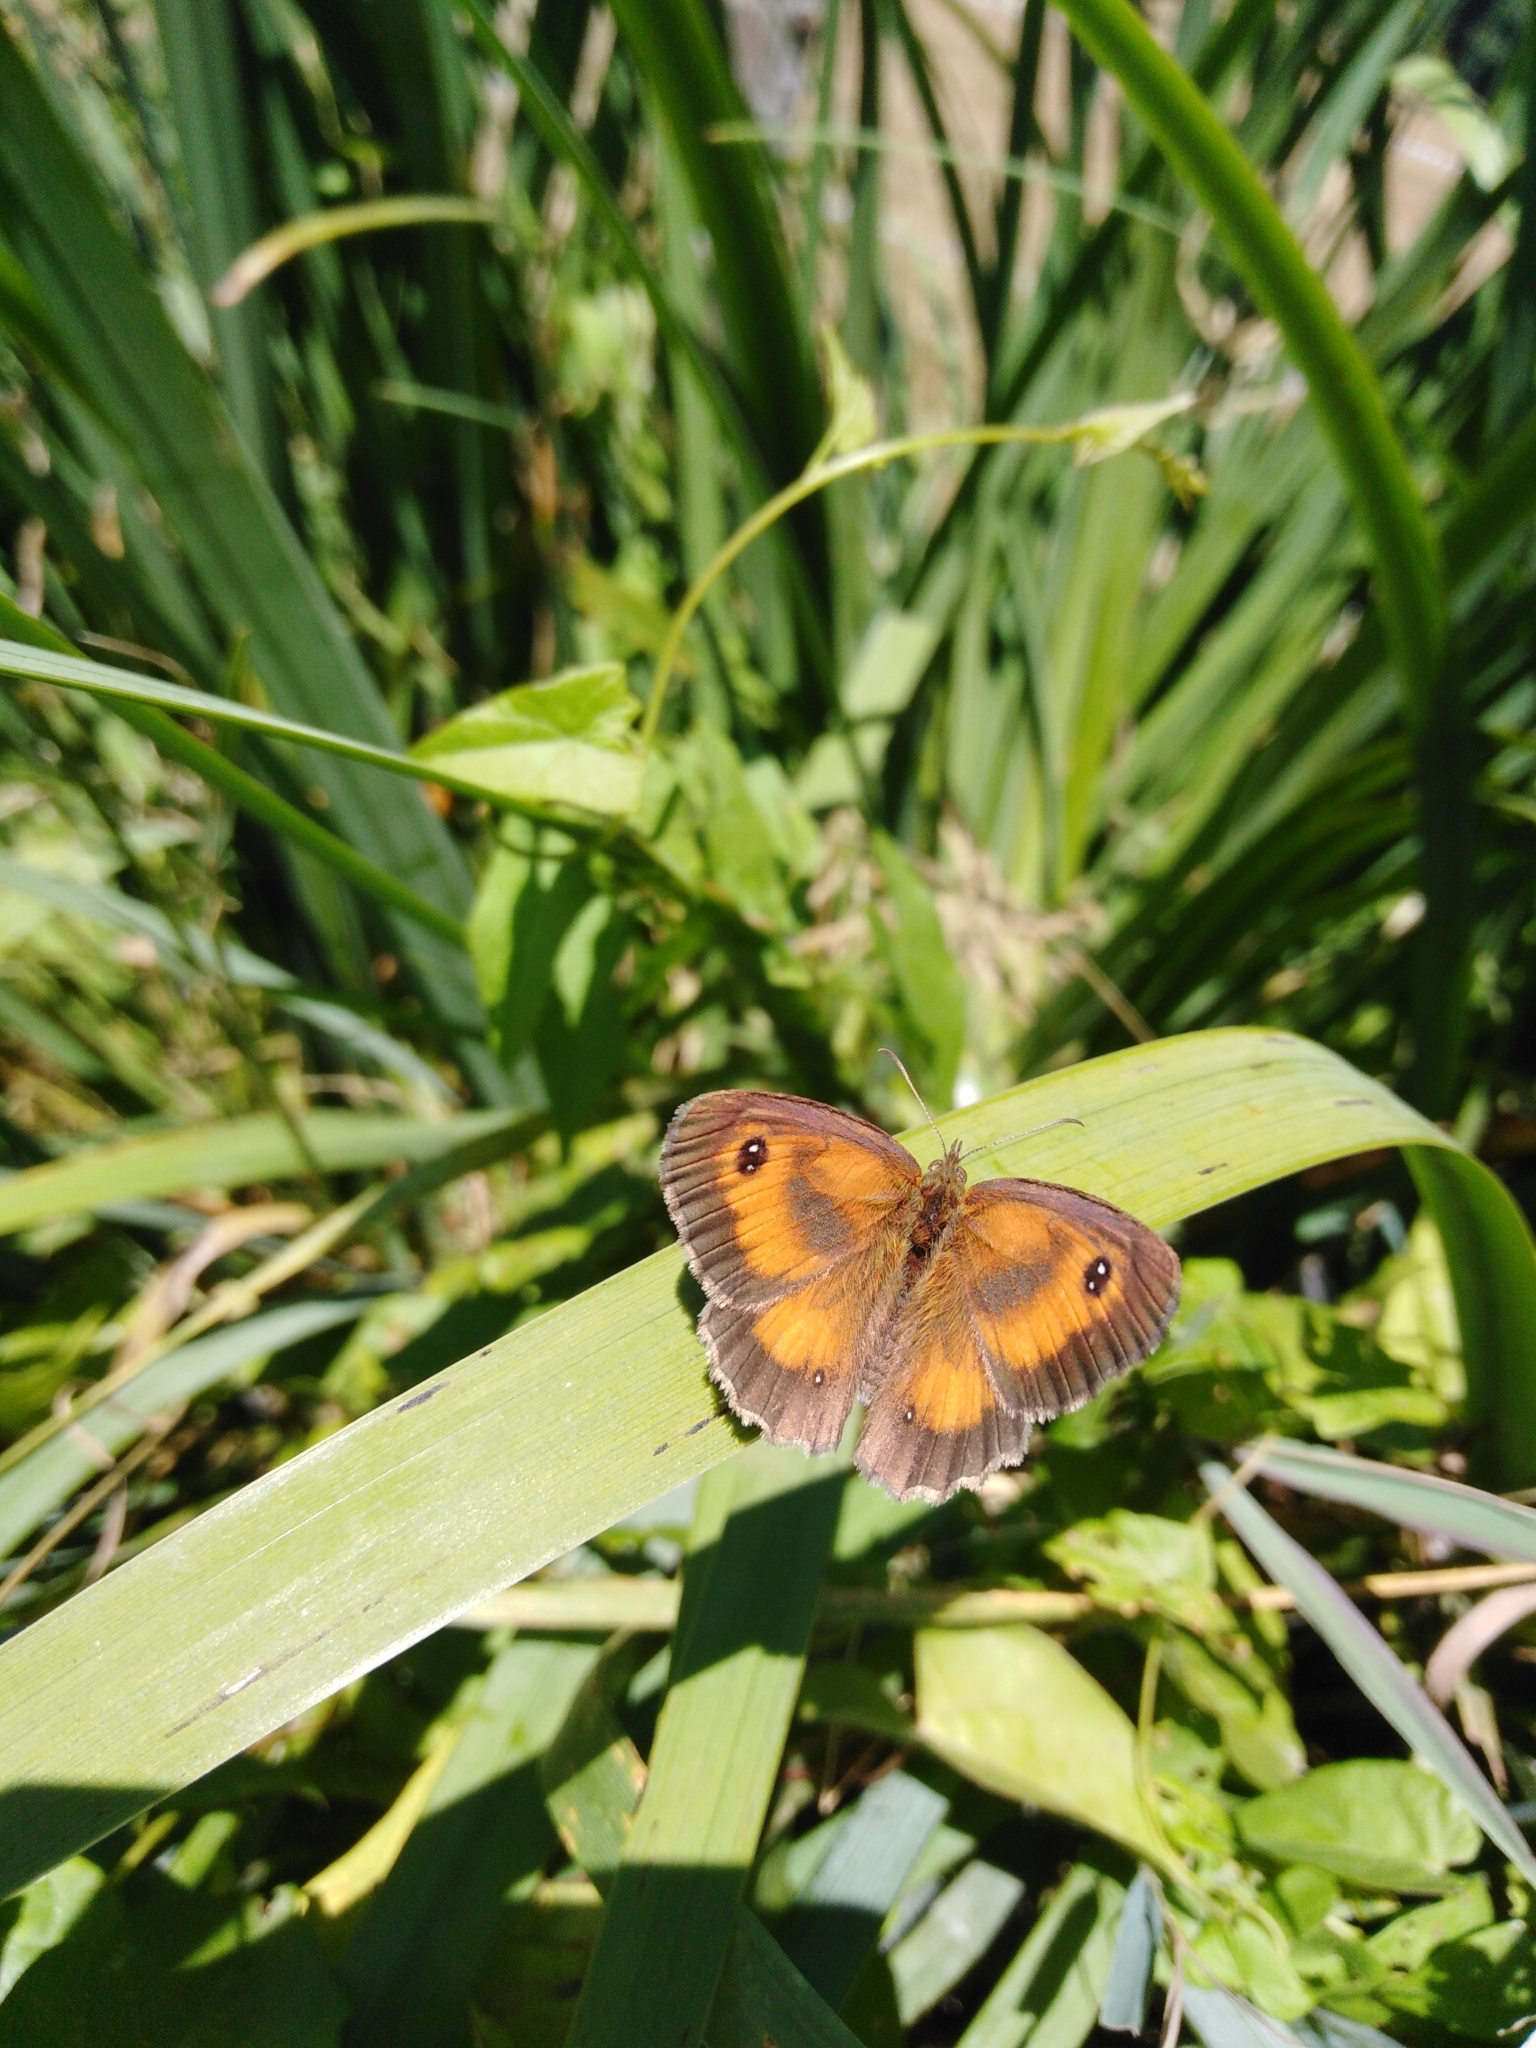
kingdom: Animalia
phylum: Arthropoda
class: Insecta
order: Lepidoptera
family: Nymphalidae
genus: Pyronia
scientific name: Pyronia tithonus
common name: Gatekeeper
